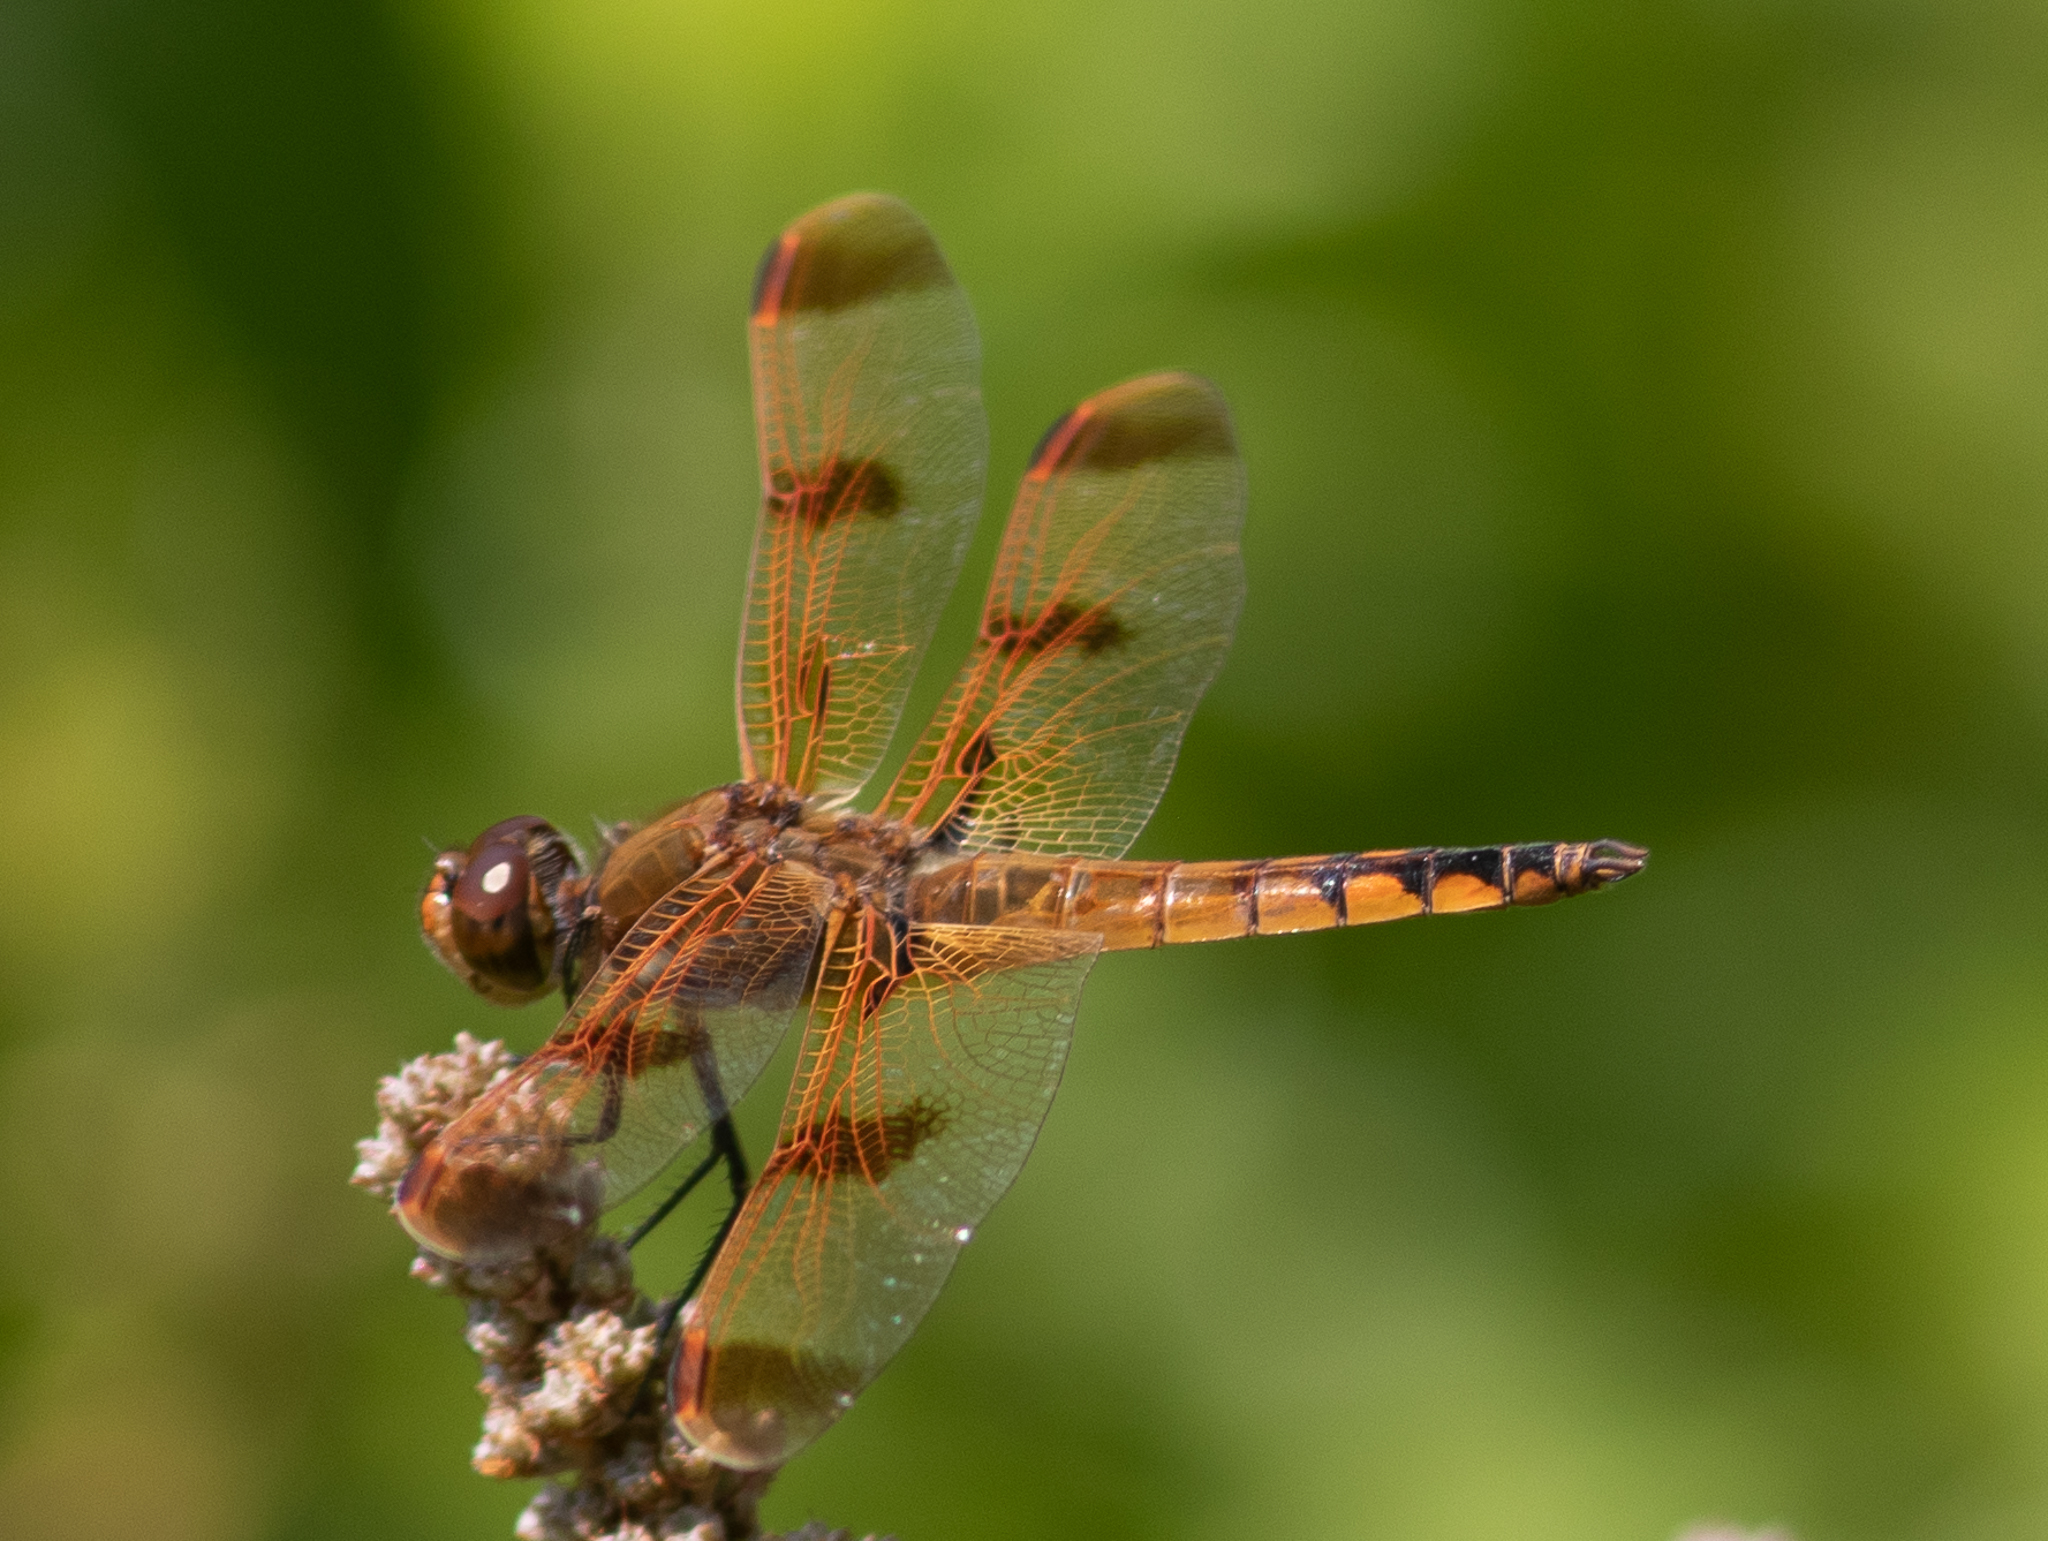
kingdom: Animalia
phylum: Arthropoda
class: Insecta
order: Odonata
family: Libellulidae
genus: Libellula
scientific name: Libellula semifasciata
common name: Painted skimmer
